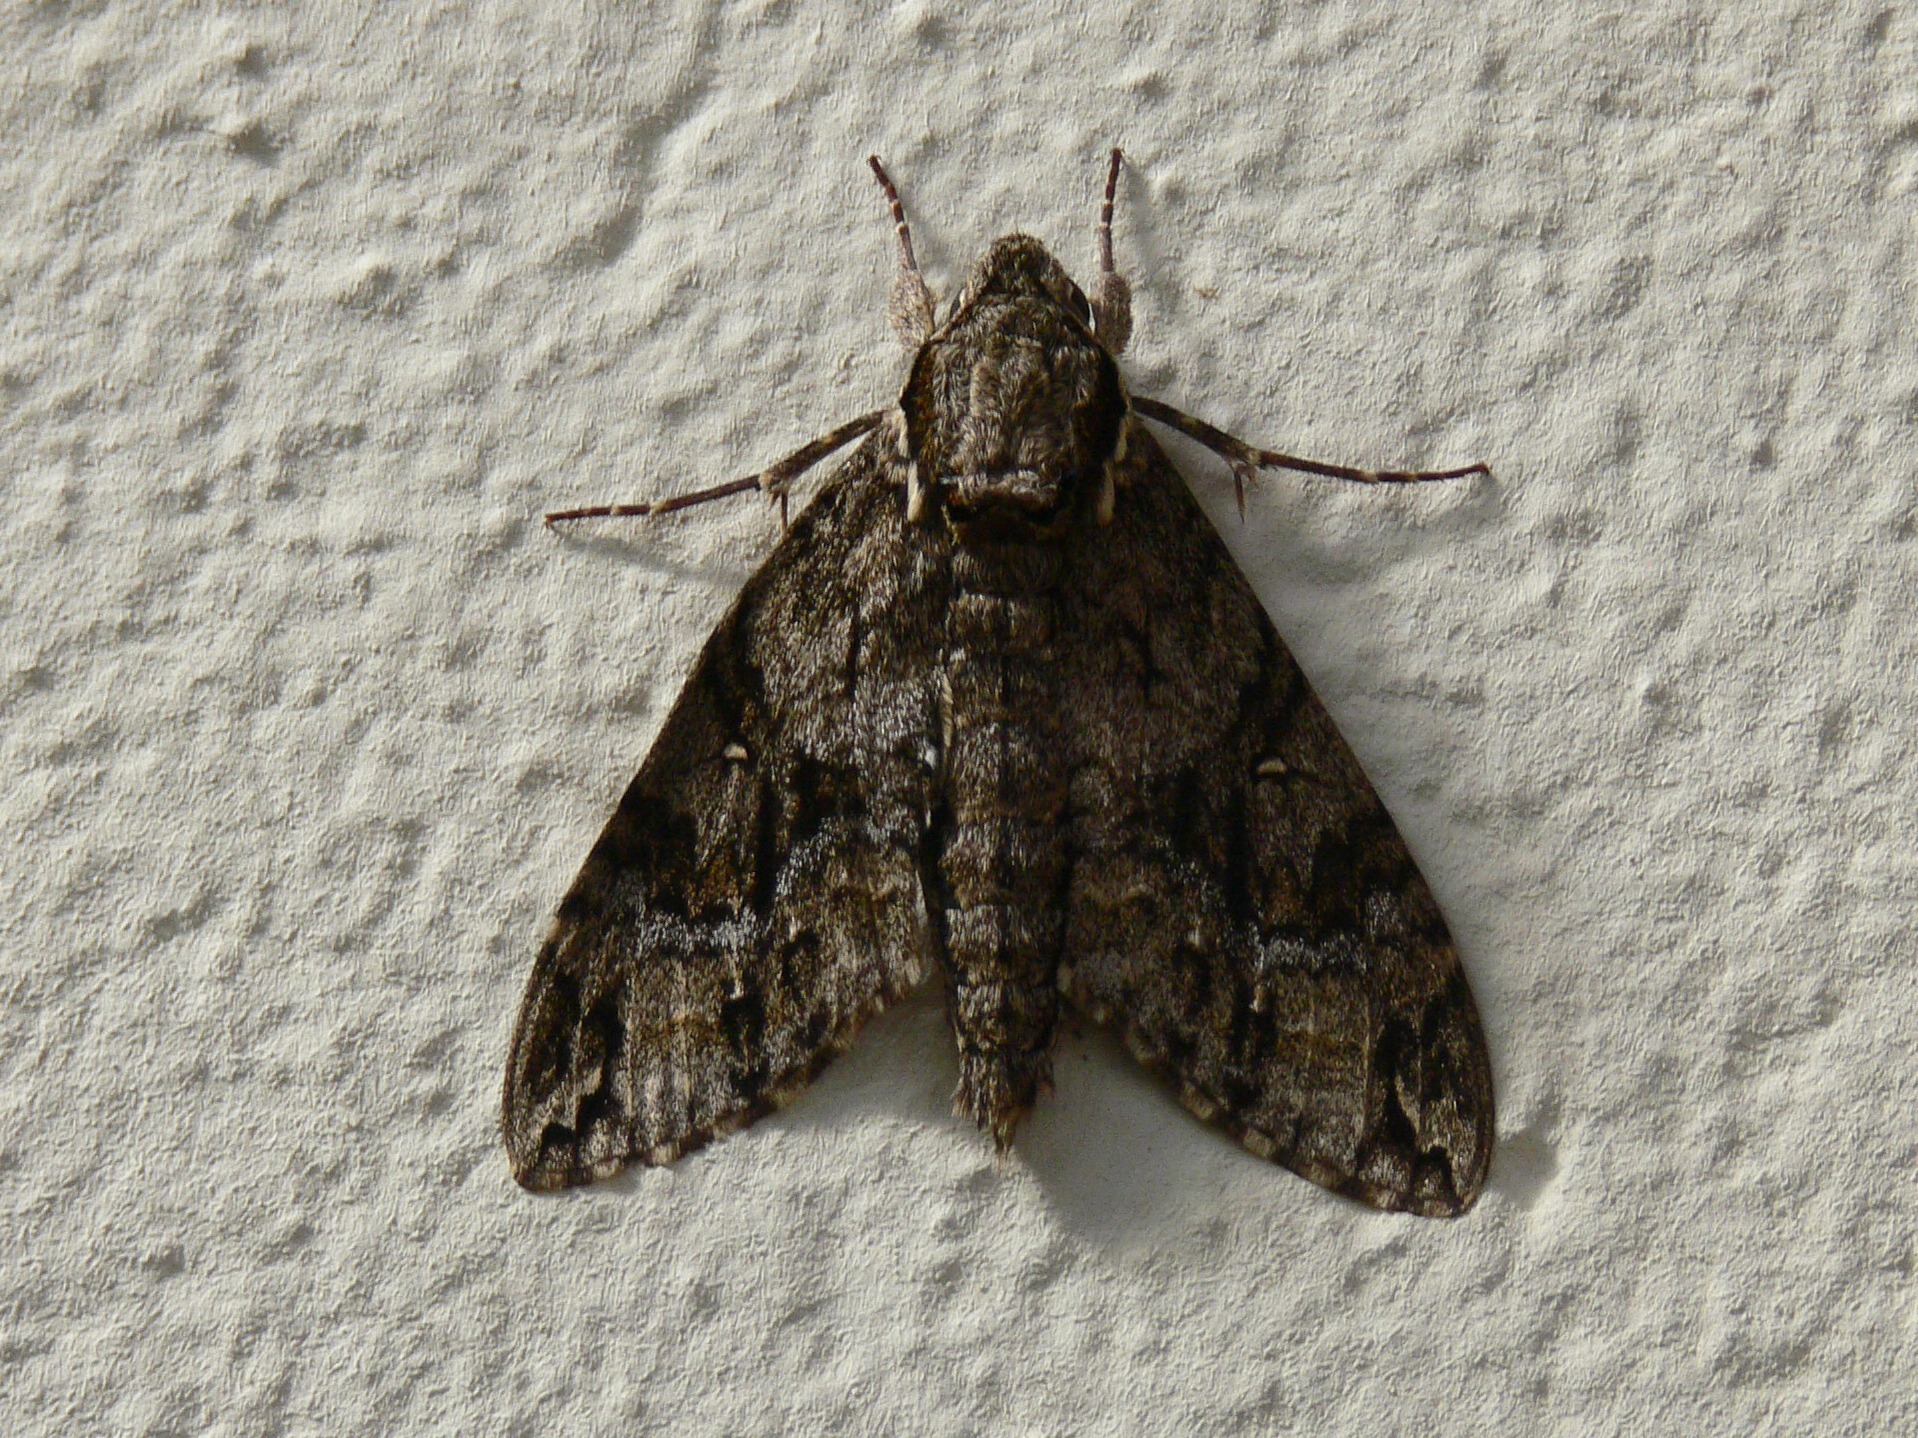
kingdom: Animalia
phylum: Arthropoda
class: Insecta
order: Lepidoptera
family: Sphingidae
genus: Panogena
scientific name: Panogena lingens
